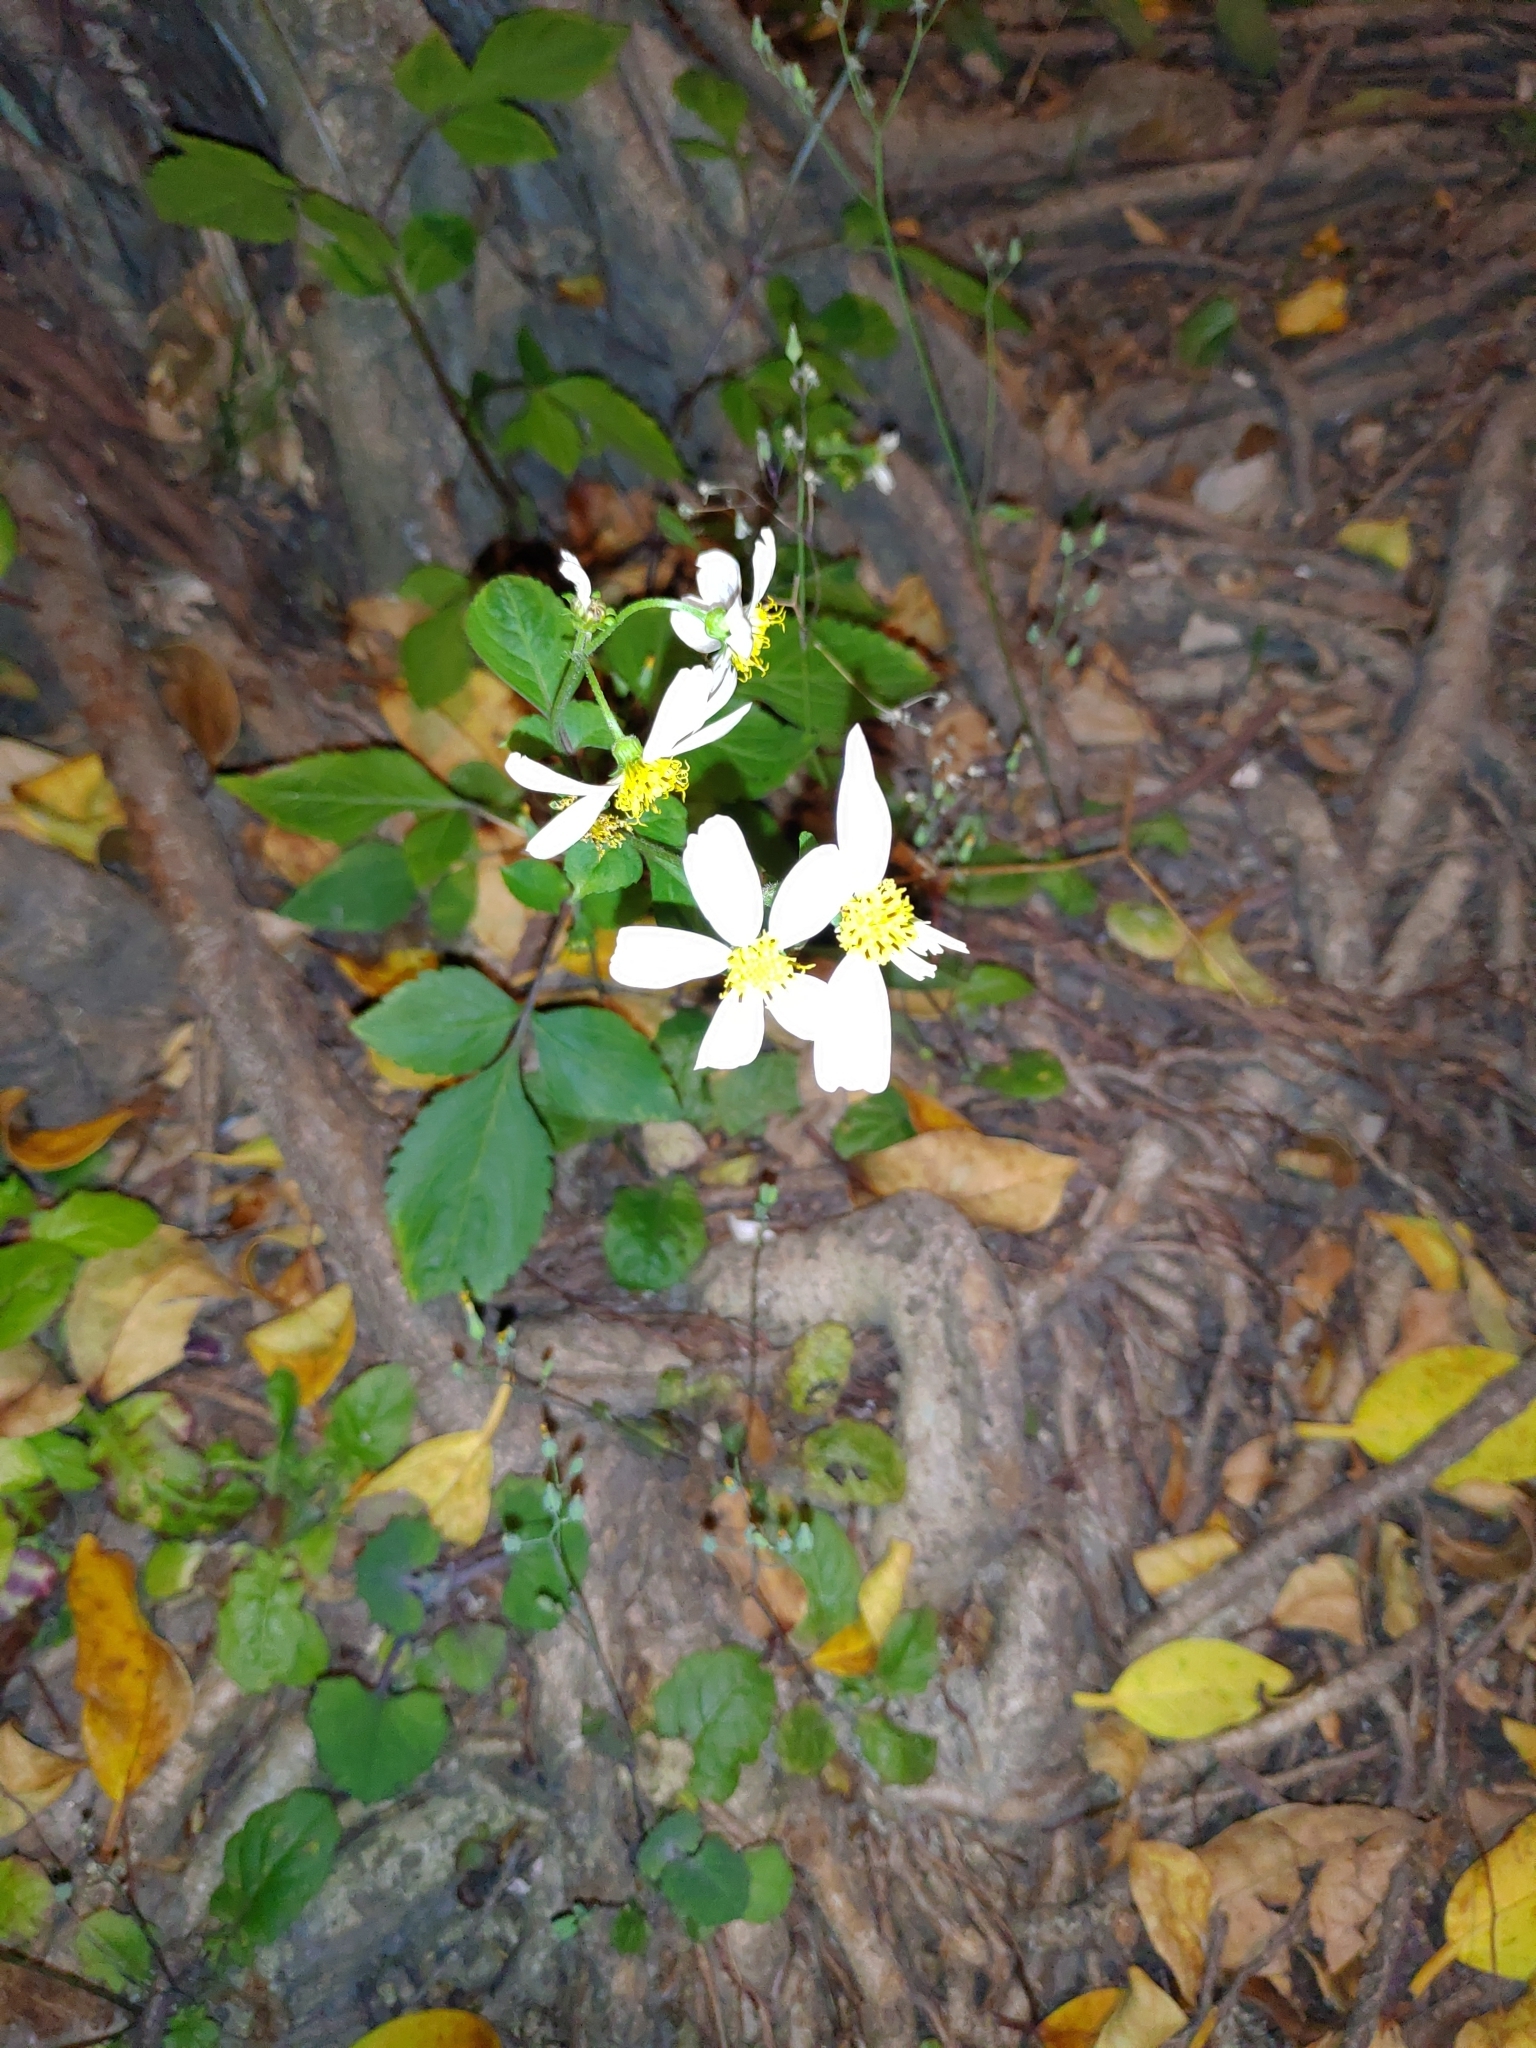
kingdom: Plantae
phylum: Tracheophyta
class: Magnoliopsida
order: Asterales
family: Asteraceae
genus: Bidens
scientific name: Bidens alba
